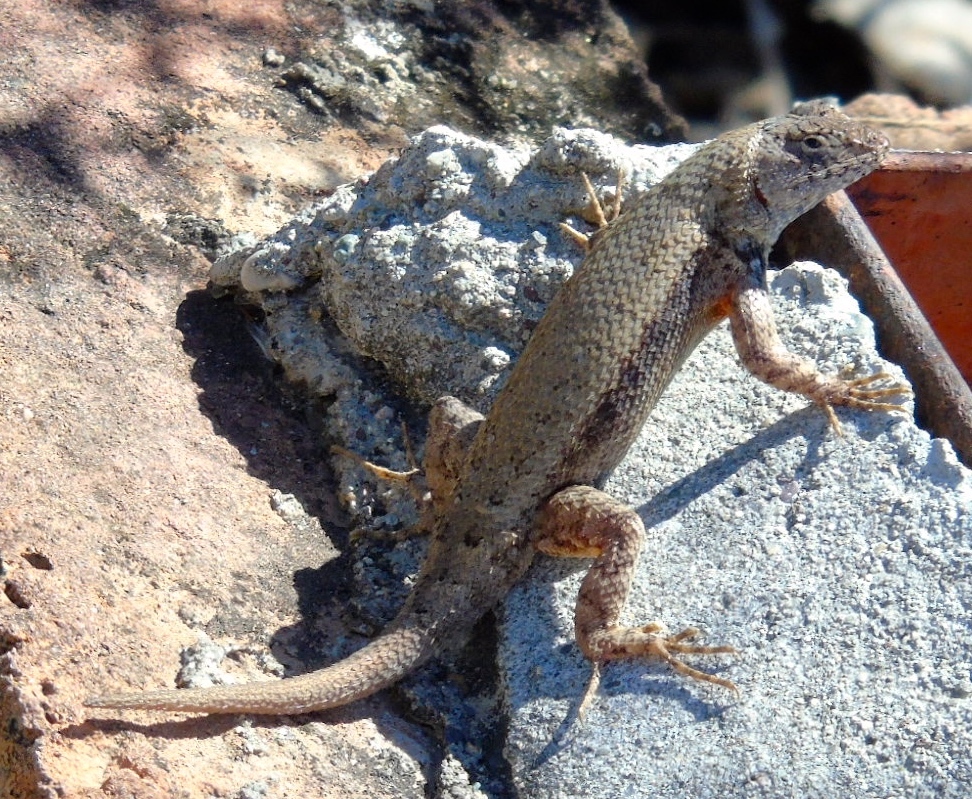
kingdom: Animalia
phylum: Chordata
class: Squamata
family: Phrynosomatidae
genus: Sceloporus
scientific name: Sceloporus nelsoni
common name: Nelson's spiny lizard
